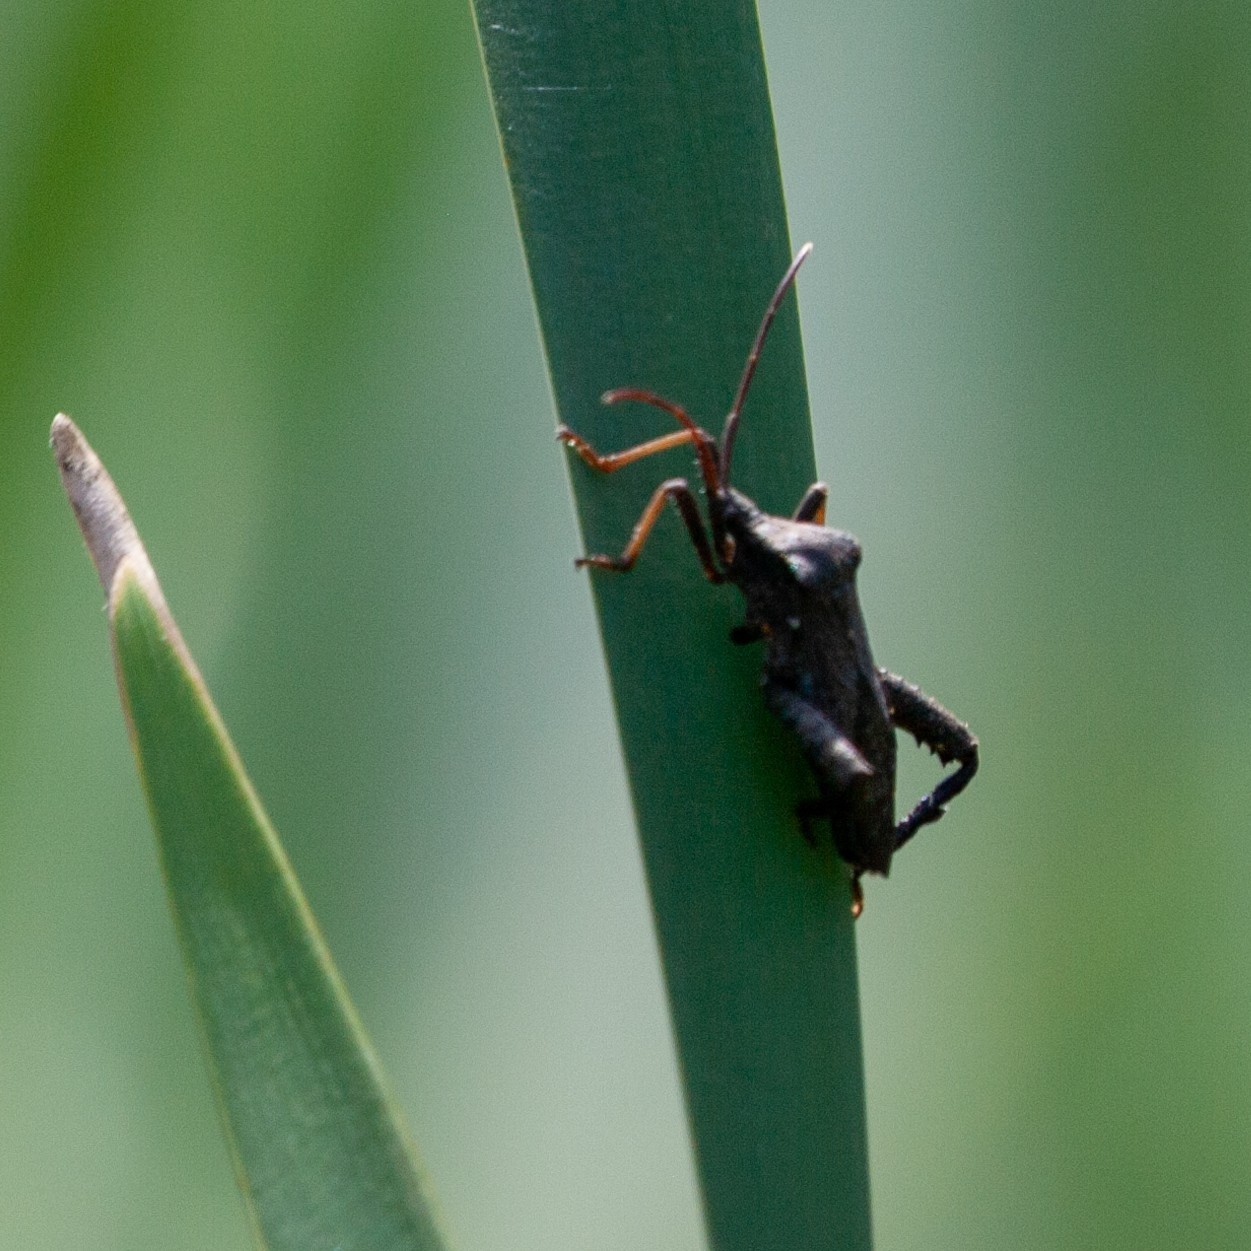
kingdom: Animalia
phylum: Arthropoda
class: Insecta
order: Hemiptera
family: Coreidae
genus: Acanthocephala
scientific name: Acanthocephala femorata
